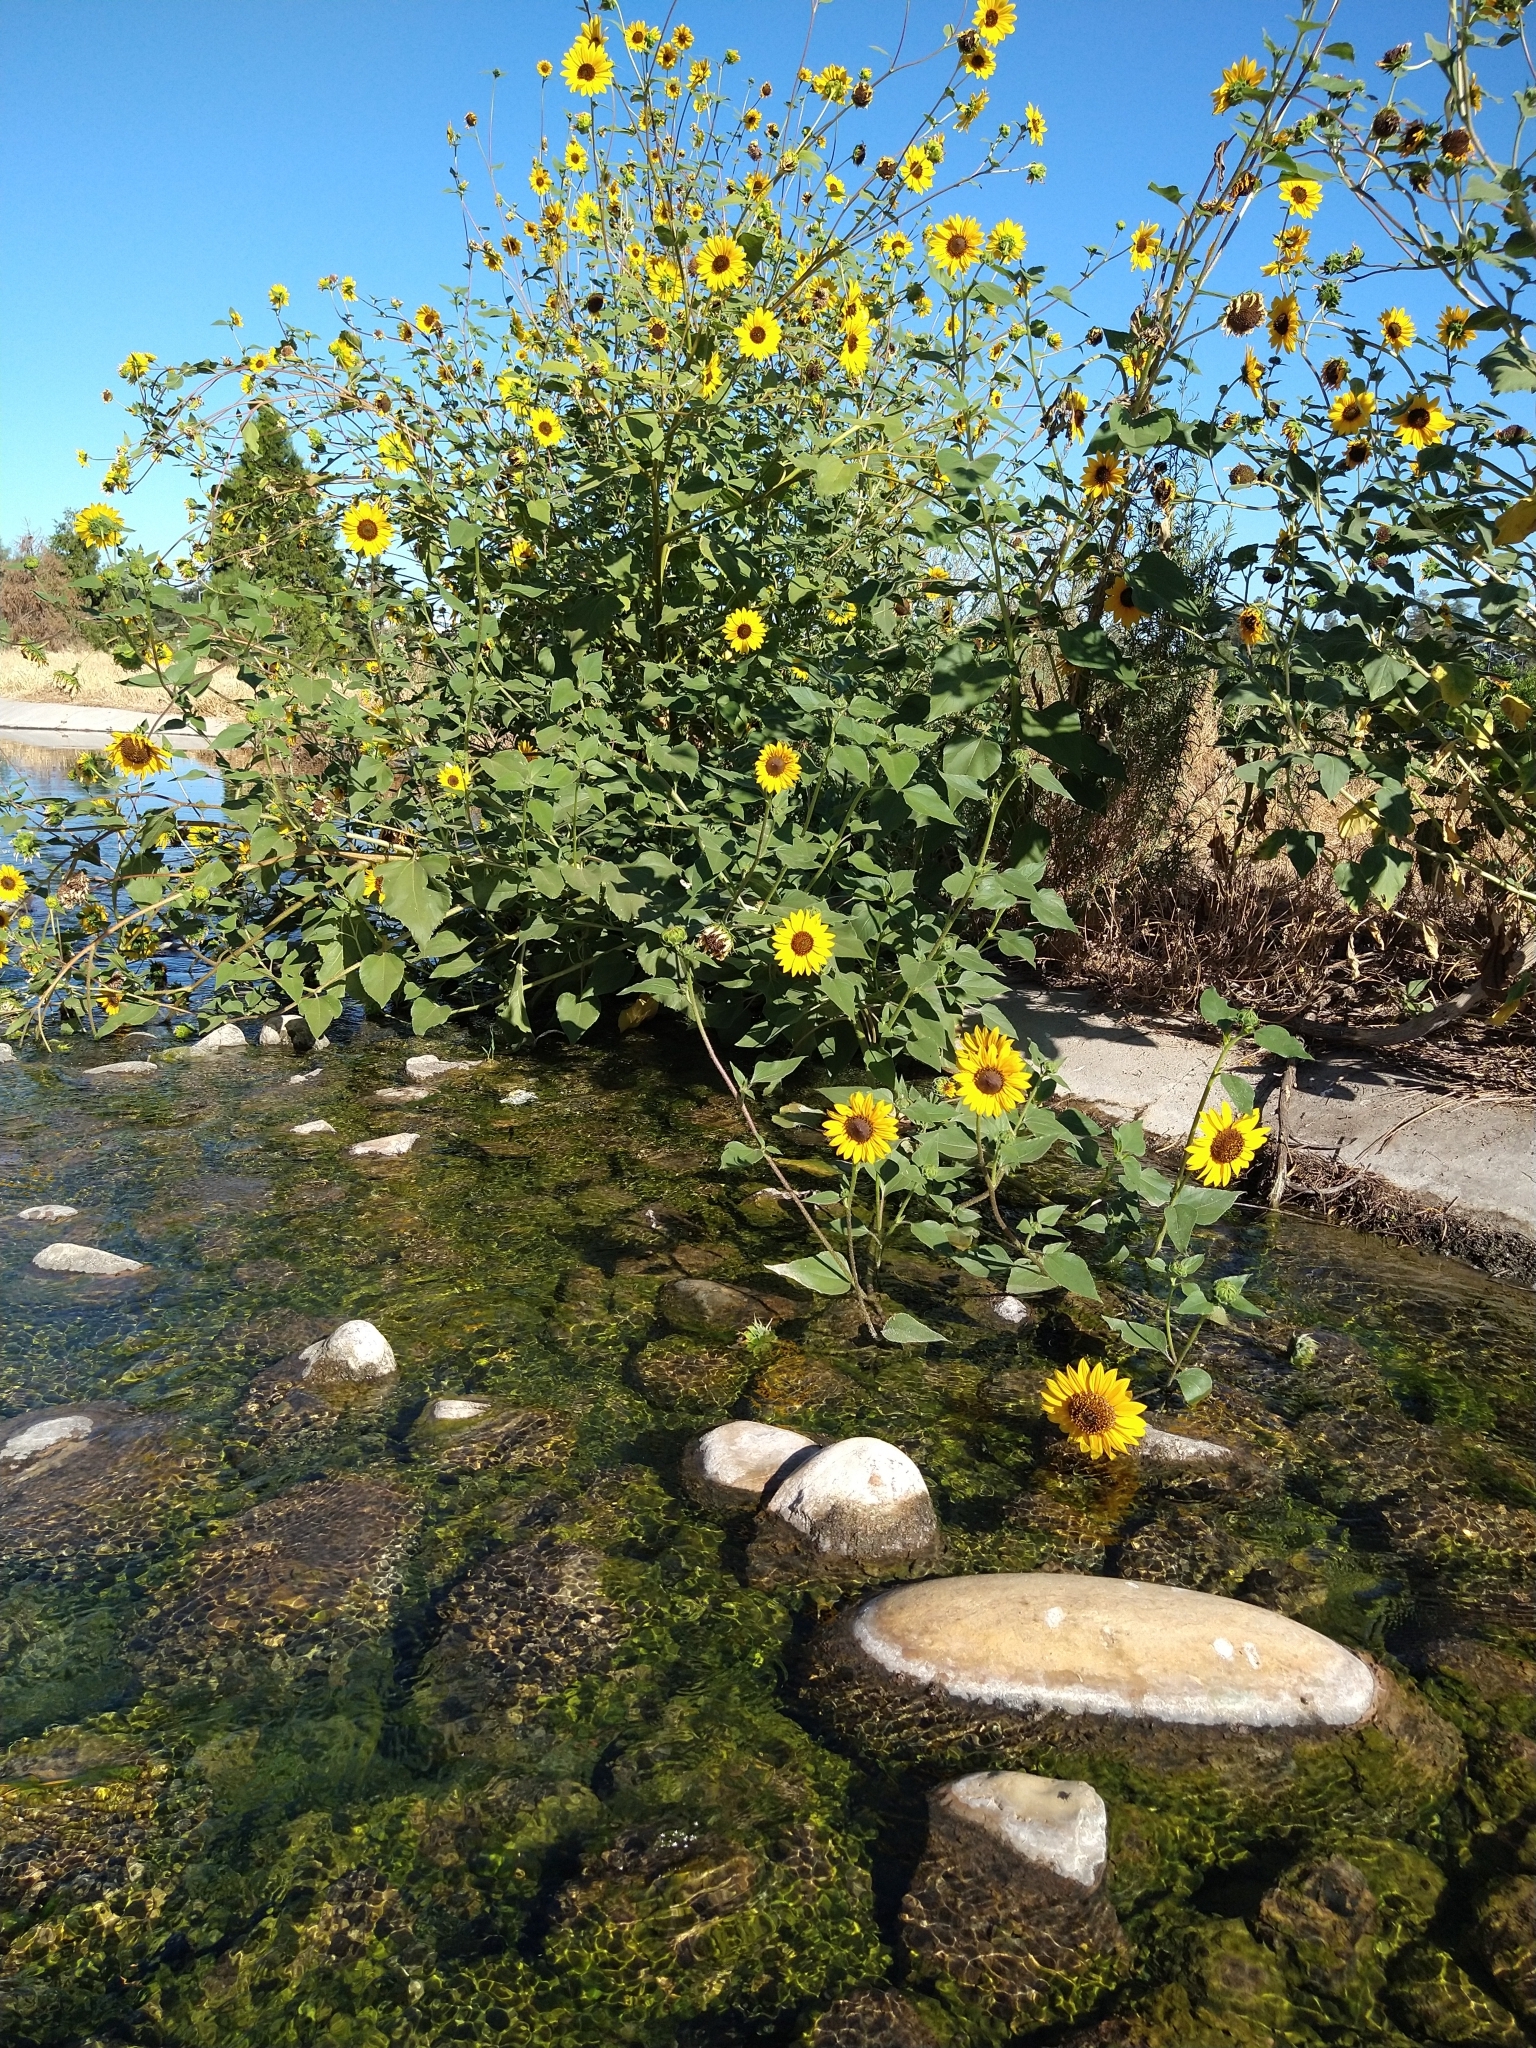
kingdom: Plantae
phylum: Tracheophyta
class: Magnoliopsida
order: Asterales
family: Asteraceae
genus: Helianthus
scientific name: Helianthus annuus
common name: Sunflower
